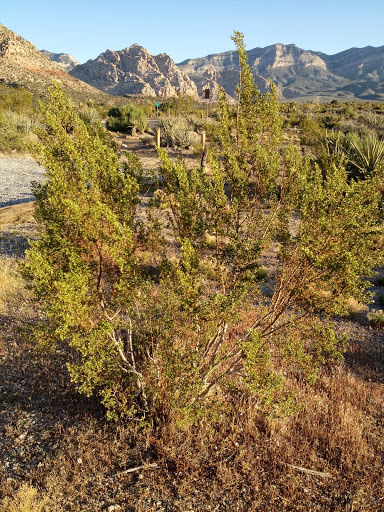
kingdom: Plantae
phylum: Tracheophyta
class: Magnoliopsida
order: Zygophyllales
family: Zygophyllaceae
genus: Larrea
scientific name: Larrea tridentata
